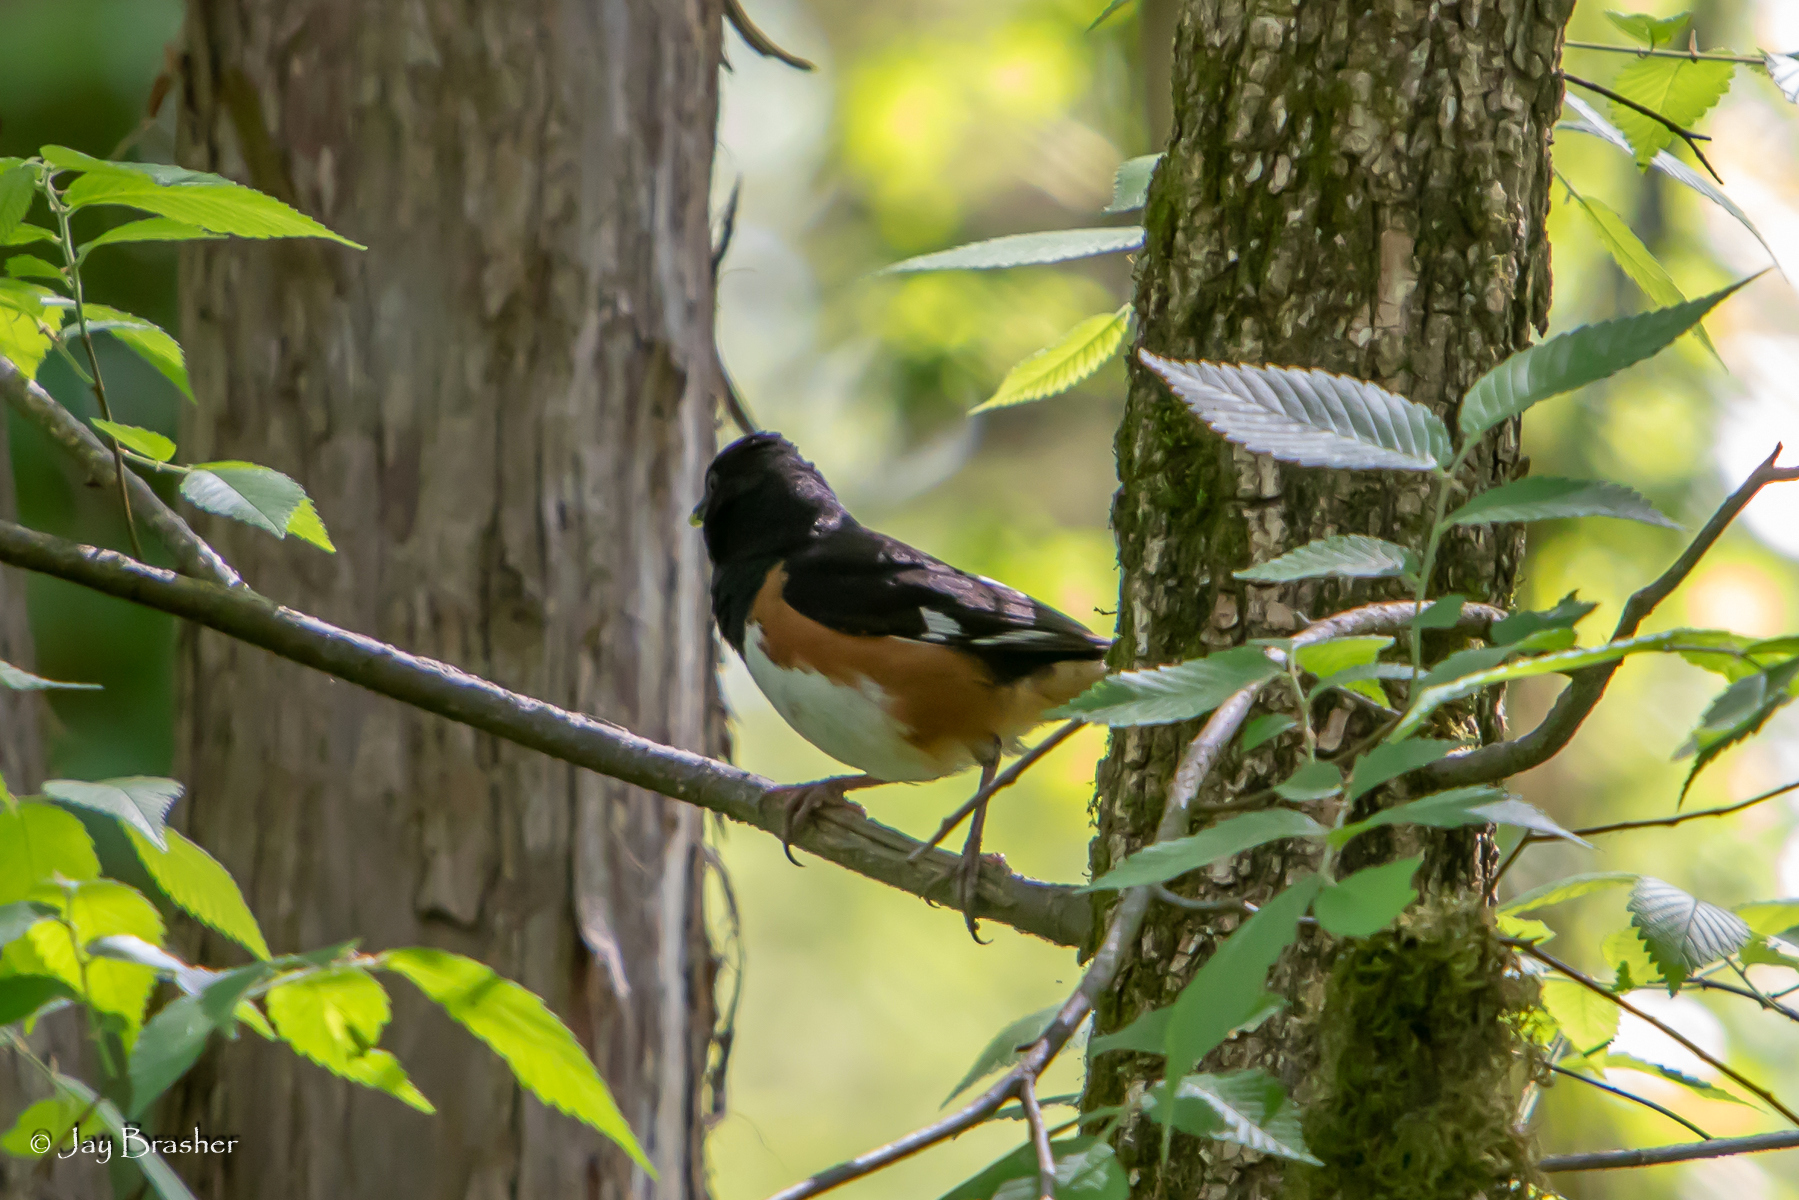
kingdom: Animalia
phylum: Chordata
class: Aves
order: Passeriformes
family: Passerellidae
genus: Pipilo
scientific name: Pipilo erythrophthalmus
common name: Eastern towhee
